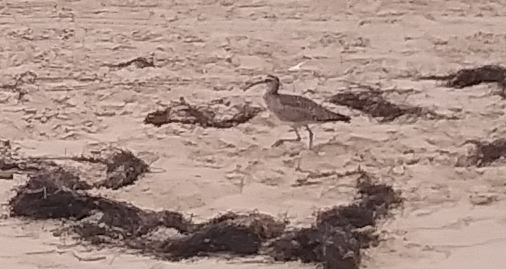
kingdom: Animalia
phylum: Chordata
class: Aves
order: Charadriiformes
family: Scolopacidae
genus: Numenius
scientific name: Numenius phaeopus
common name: Whimbrel
